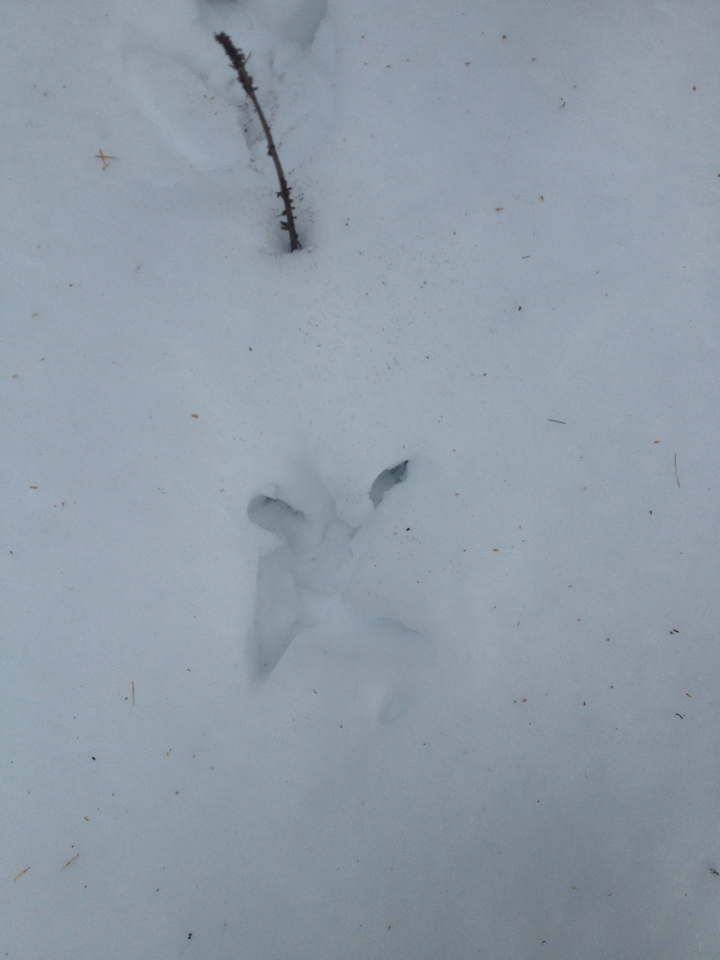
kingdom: Animalia
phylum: Chordata
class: Aves
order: Galliformes
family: Phasianidae
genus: Meleagris
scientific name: Meleagris gallopavo
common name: Wild turkey
